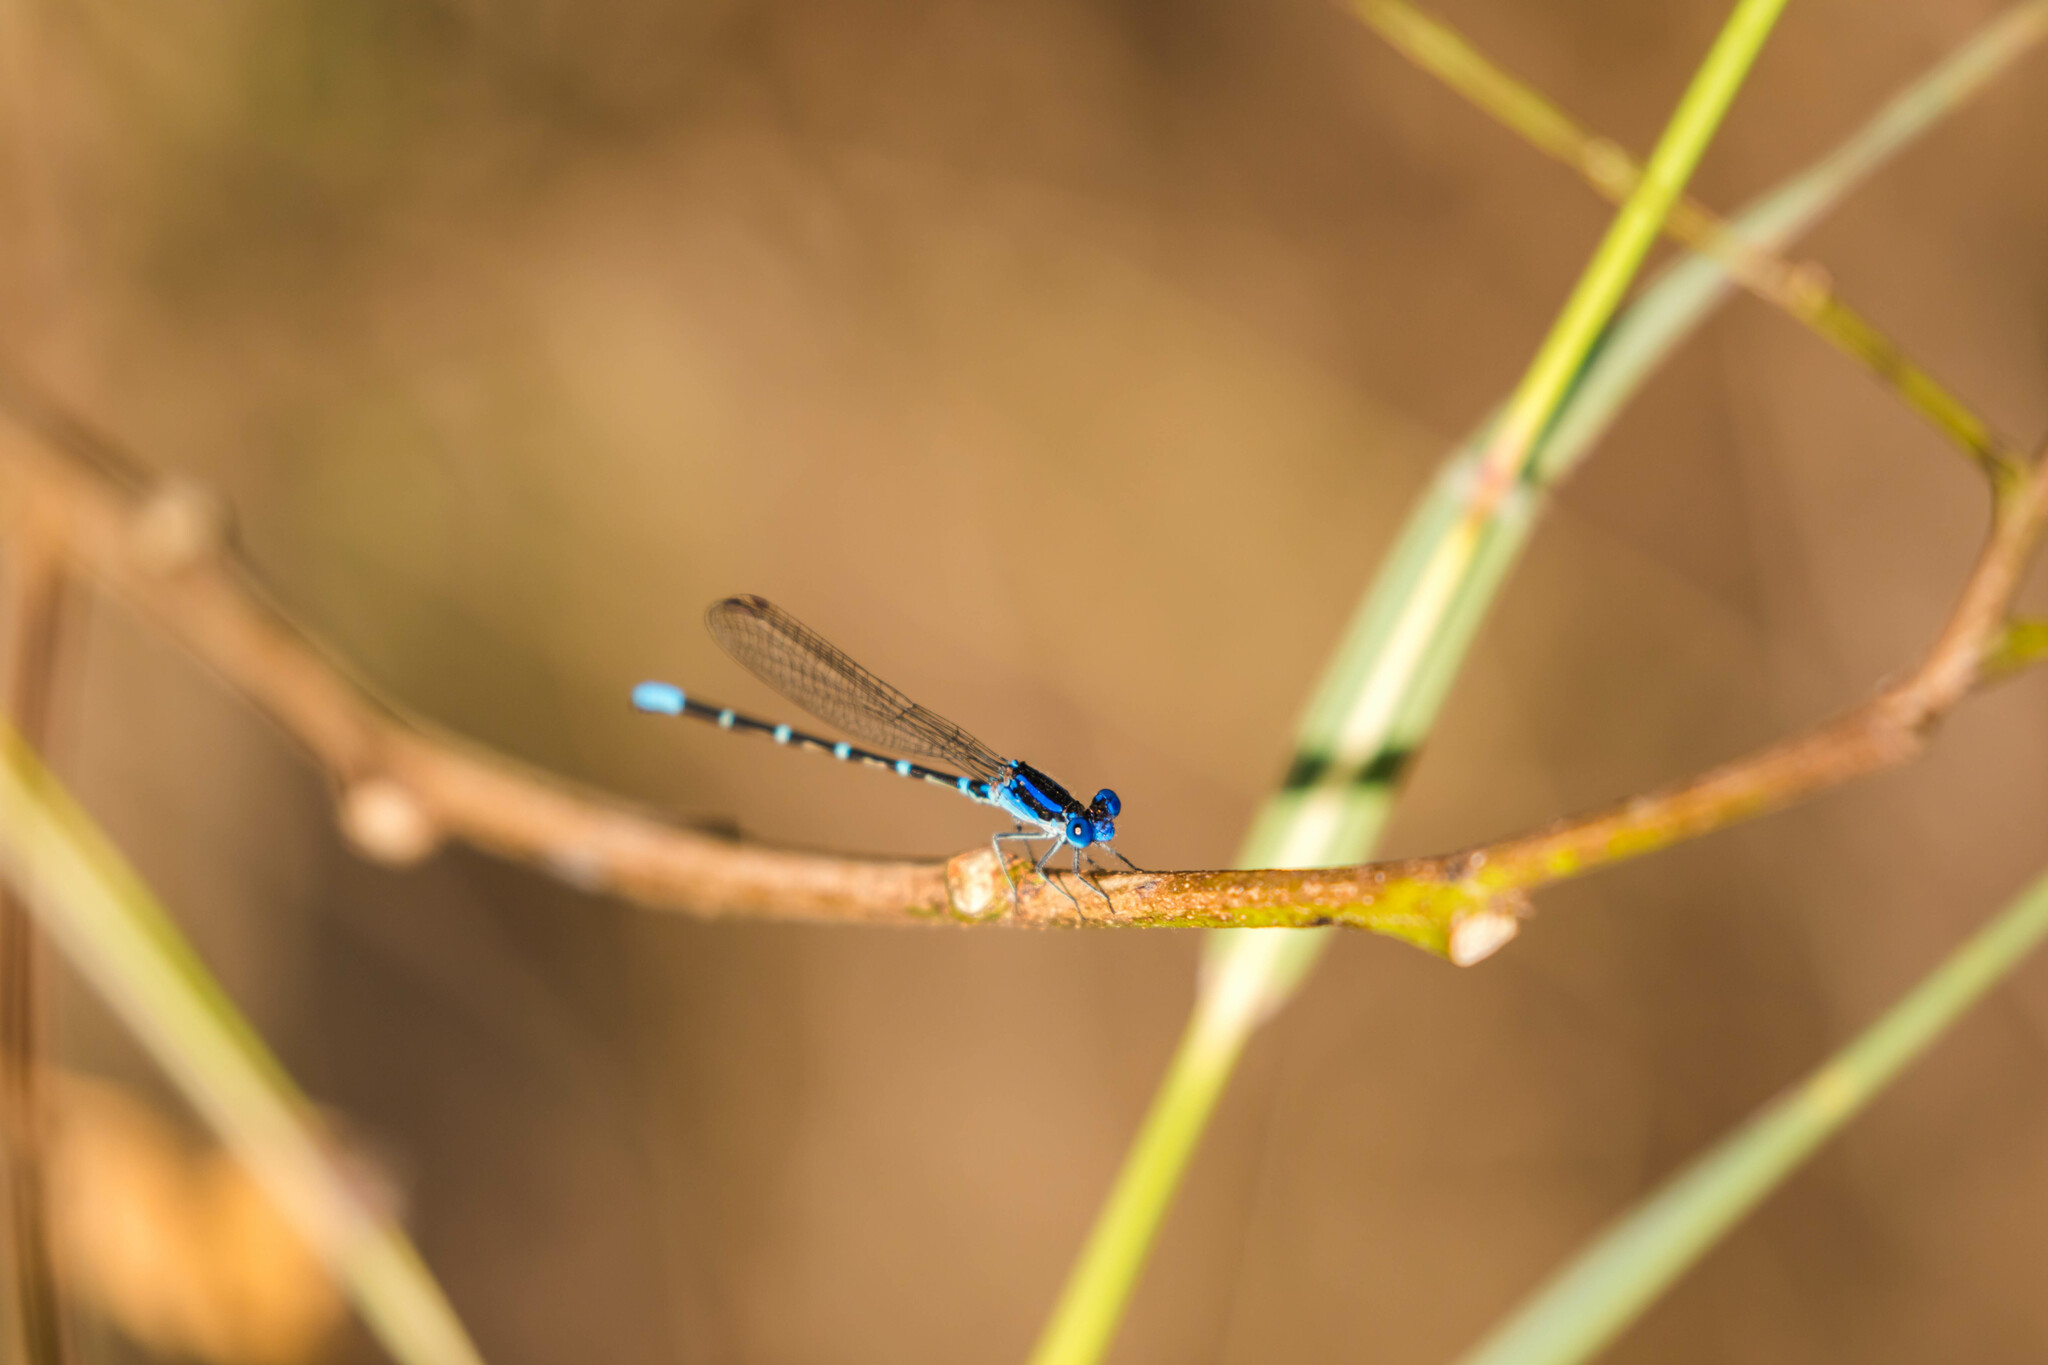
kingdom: Animalia
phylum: Arthropoda
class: Insecta
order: Odonata
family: Coenagrionidae
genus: Argia
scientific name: Argia sedula
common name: Blue-ringed dancer
